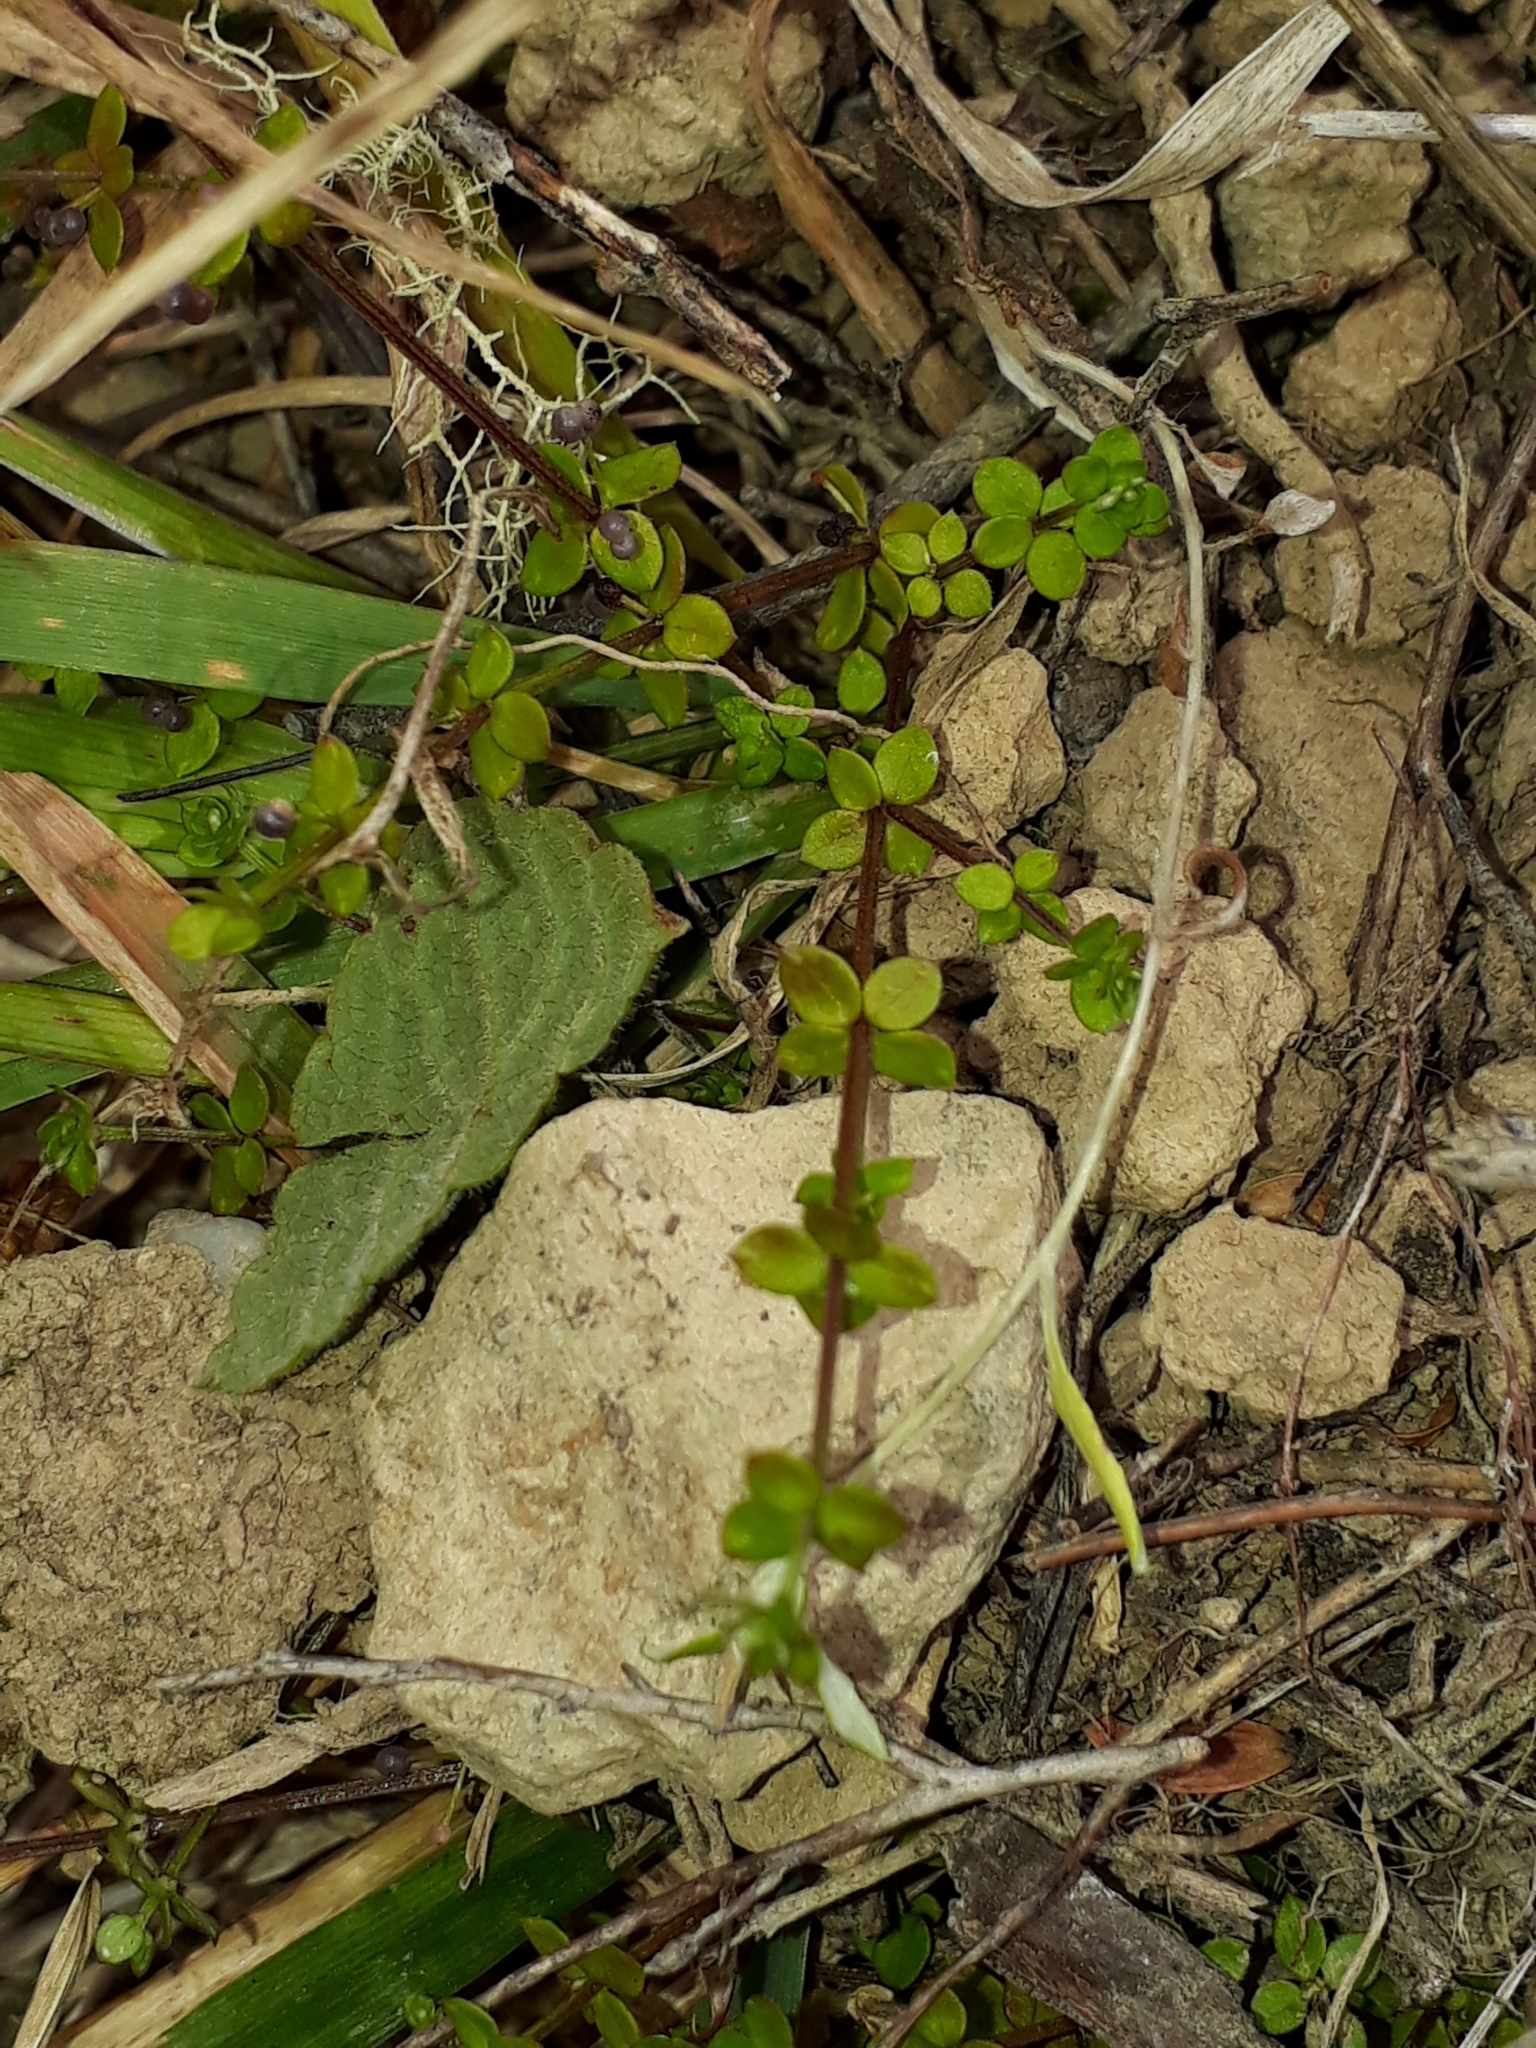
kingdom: Plantae
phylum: Tracheophyta
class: Magnoliopsida
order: Gentianales
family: Rubiaceae
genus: Galium
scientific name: Galium propinquum
